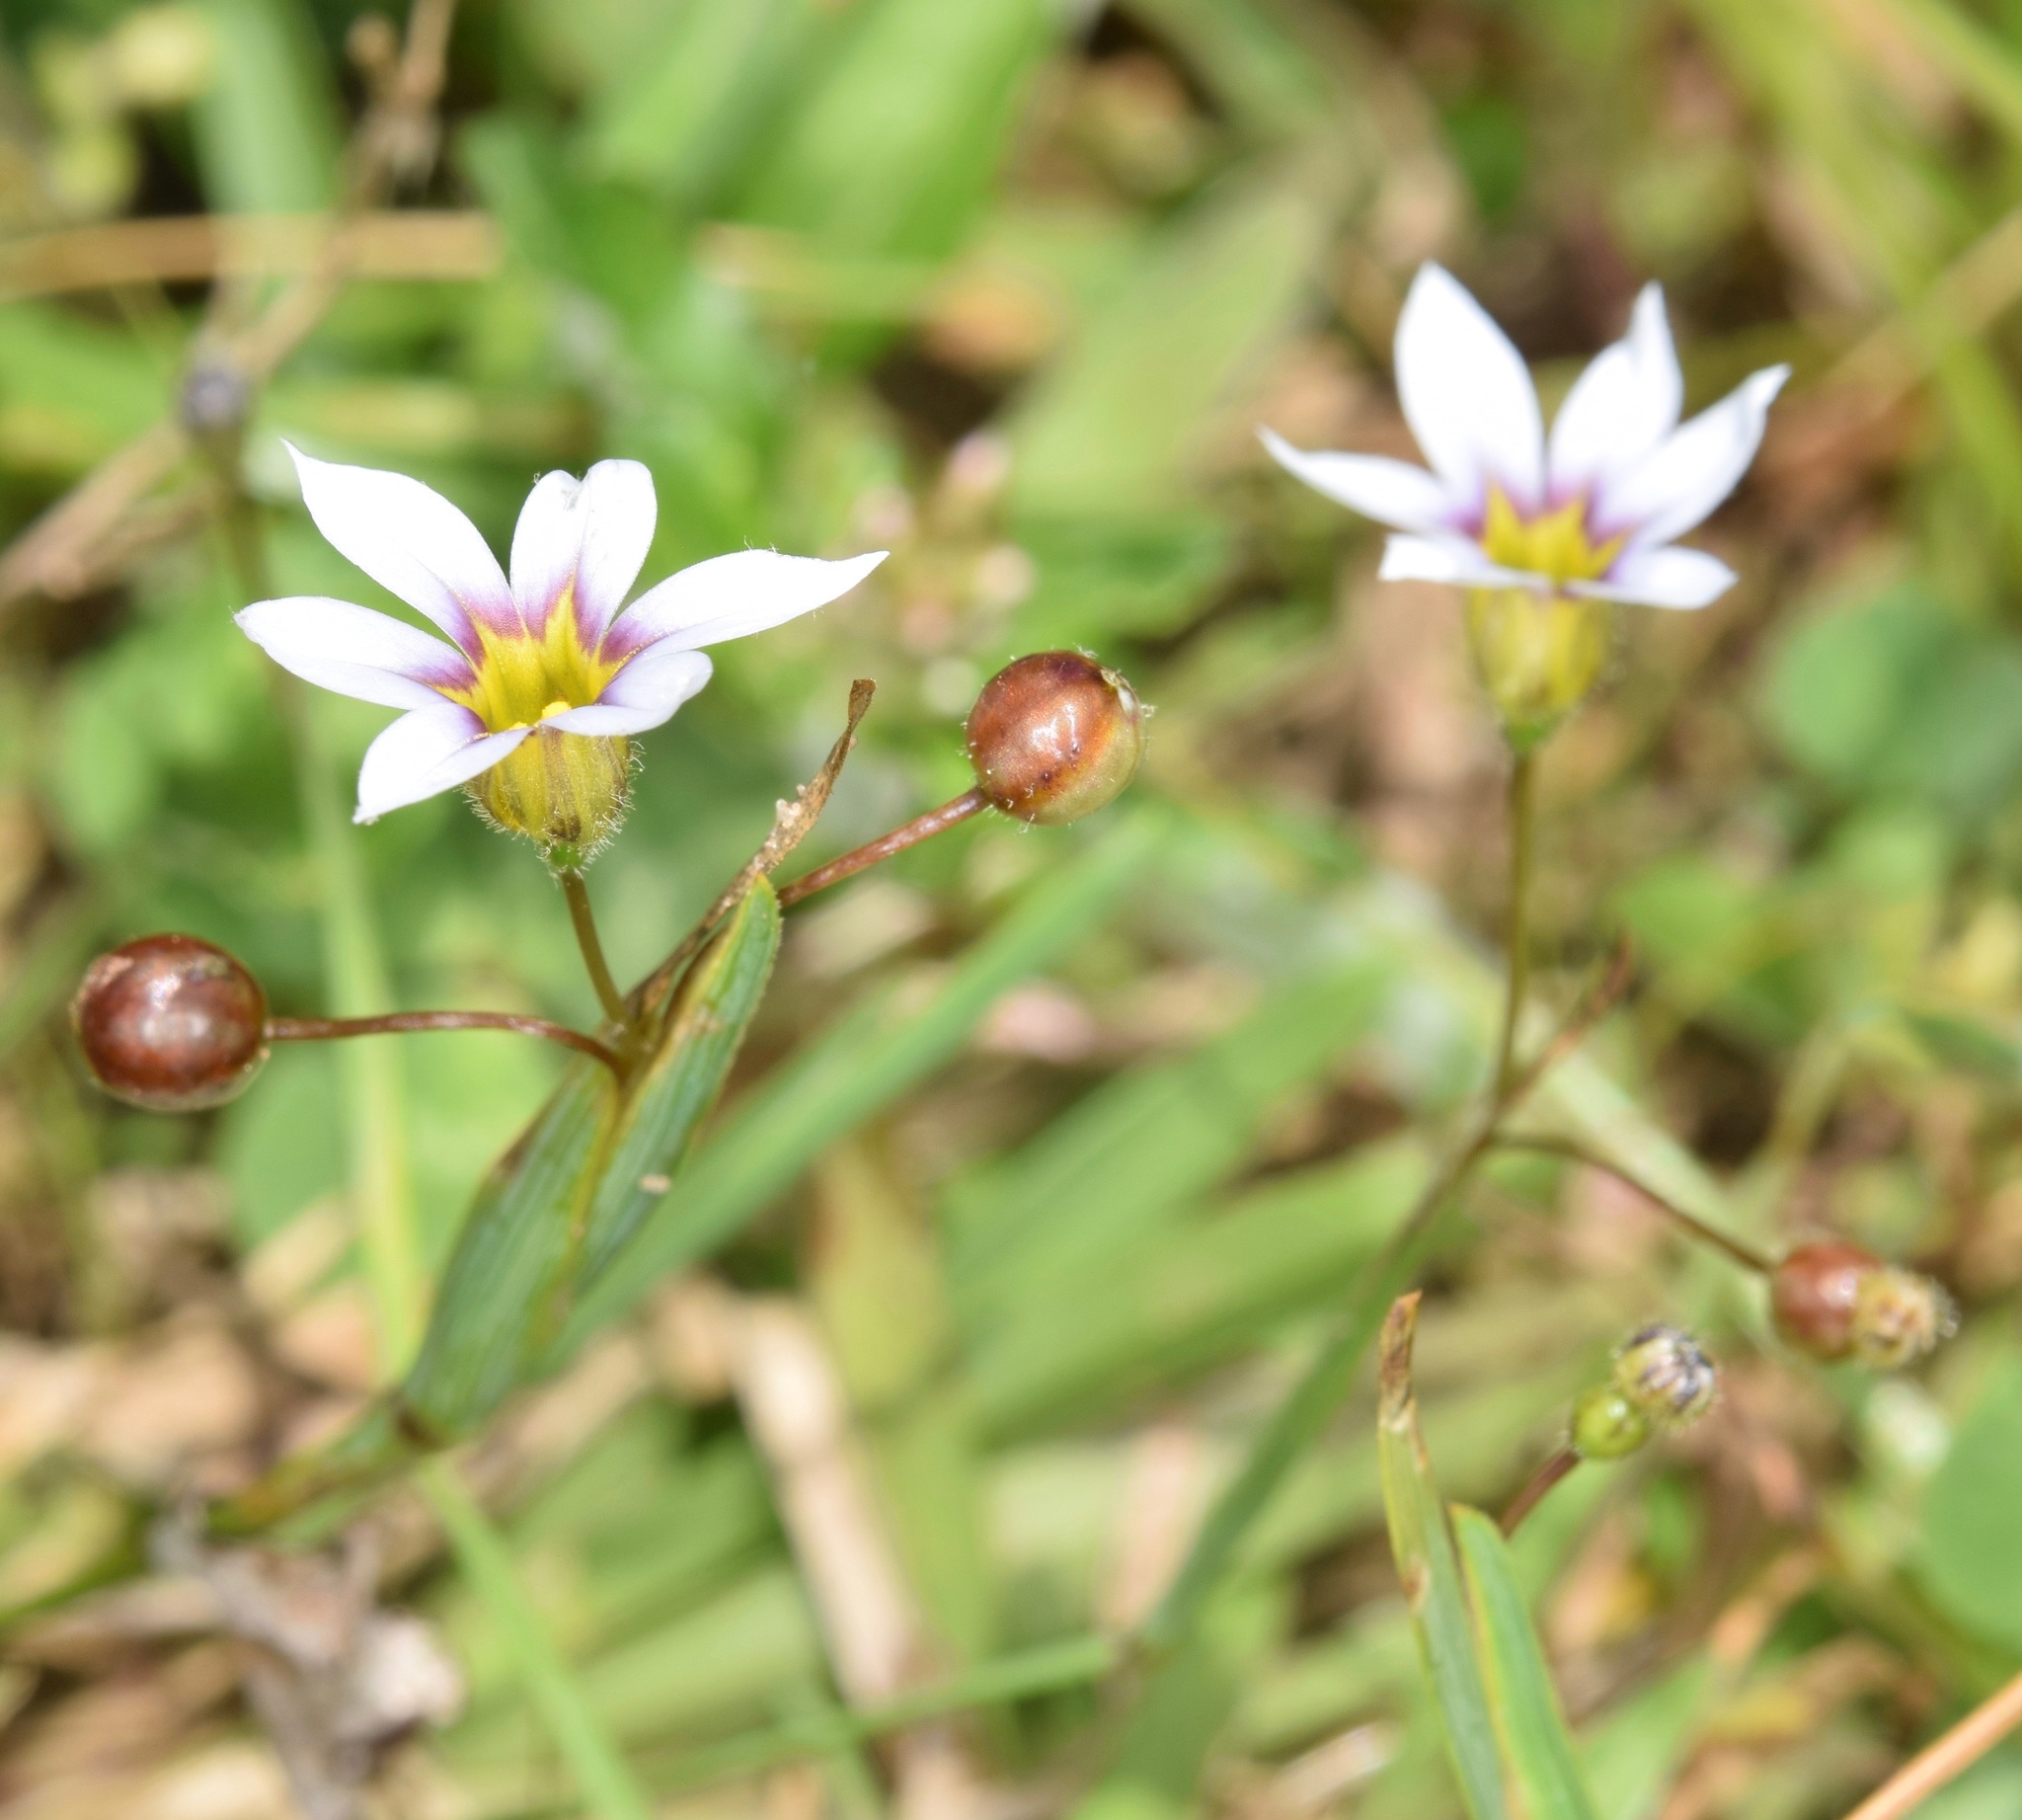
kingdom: Plantae
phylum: Tracheophyta
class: Liliopsida
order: Asparagales
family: Iridaceae
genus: Sisyrinchium
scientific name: Sisyrinchium micranthum
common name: Bermuda pigroot
